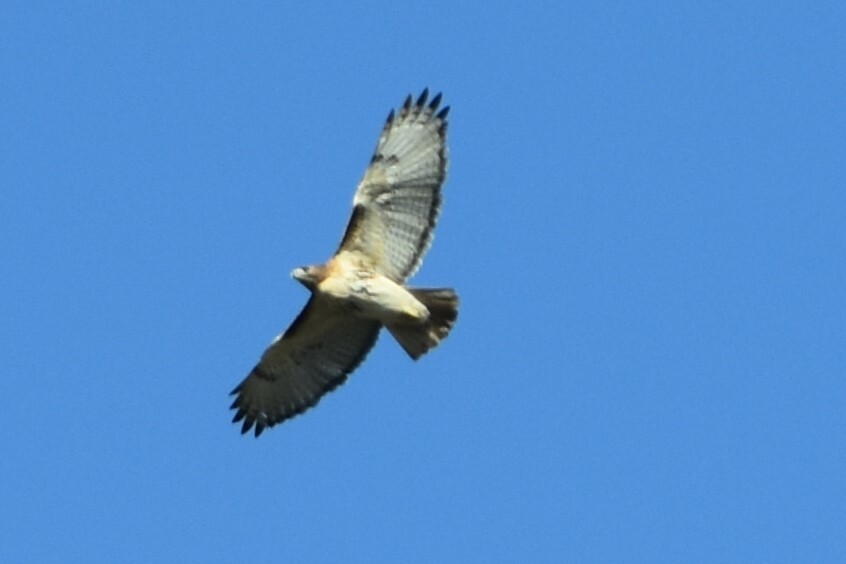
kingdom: Animalia
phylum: Chordata
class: Aves
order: Accipitriformes
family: Accipitridae
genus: Buteo
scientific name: Buteo jamaicensis
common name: Red-tailed hawk
